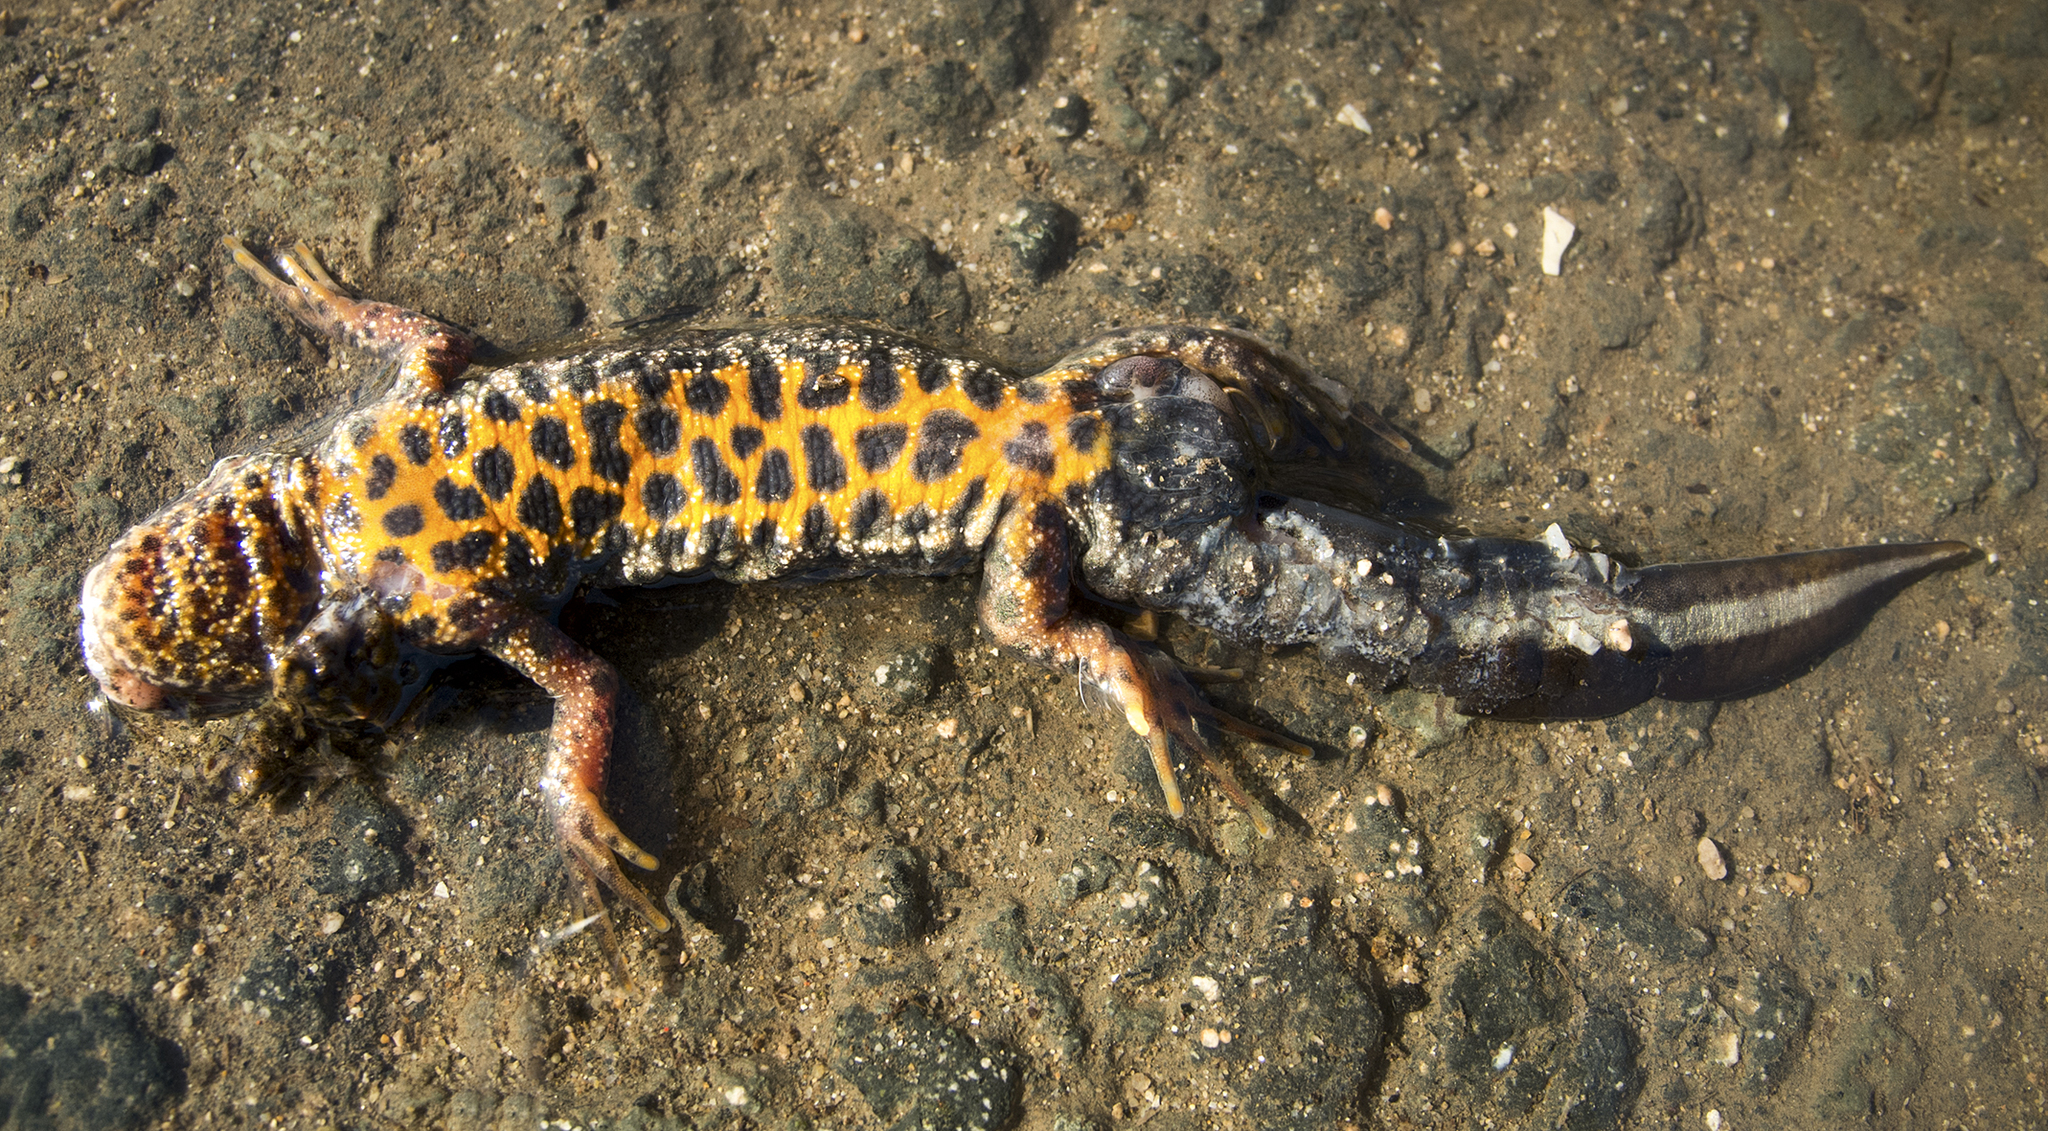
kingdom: Animalia
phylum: Chordata
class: Amphibia
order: Caudata
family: Salamandridae
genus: Triturus
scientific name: Triturus ivanbureschi
